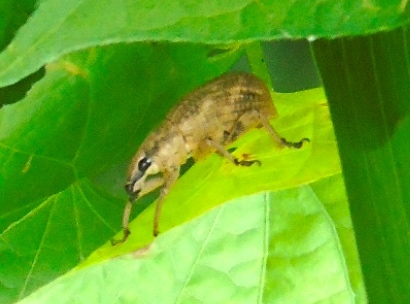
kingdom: Animalia
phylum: Arthropoda
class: Insecta
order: Coleoptera
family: Curculionidae
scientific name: Curculionidae
